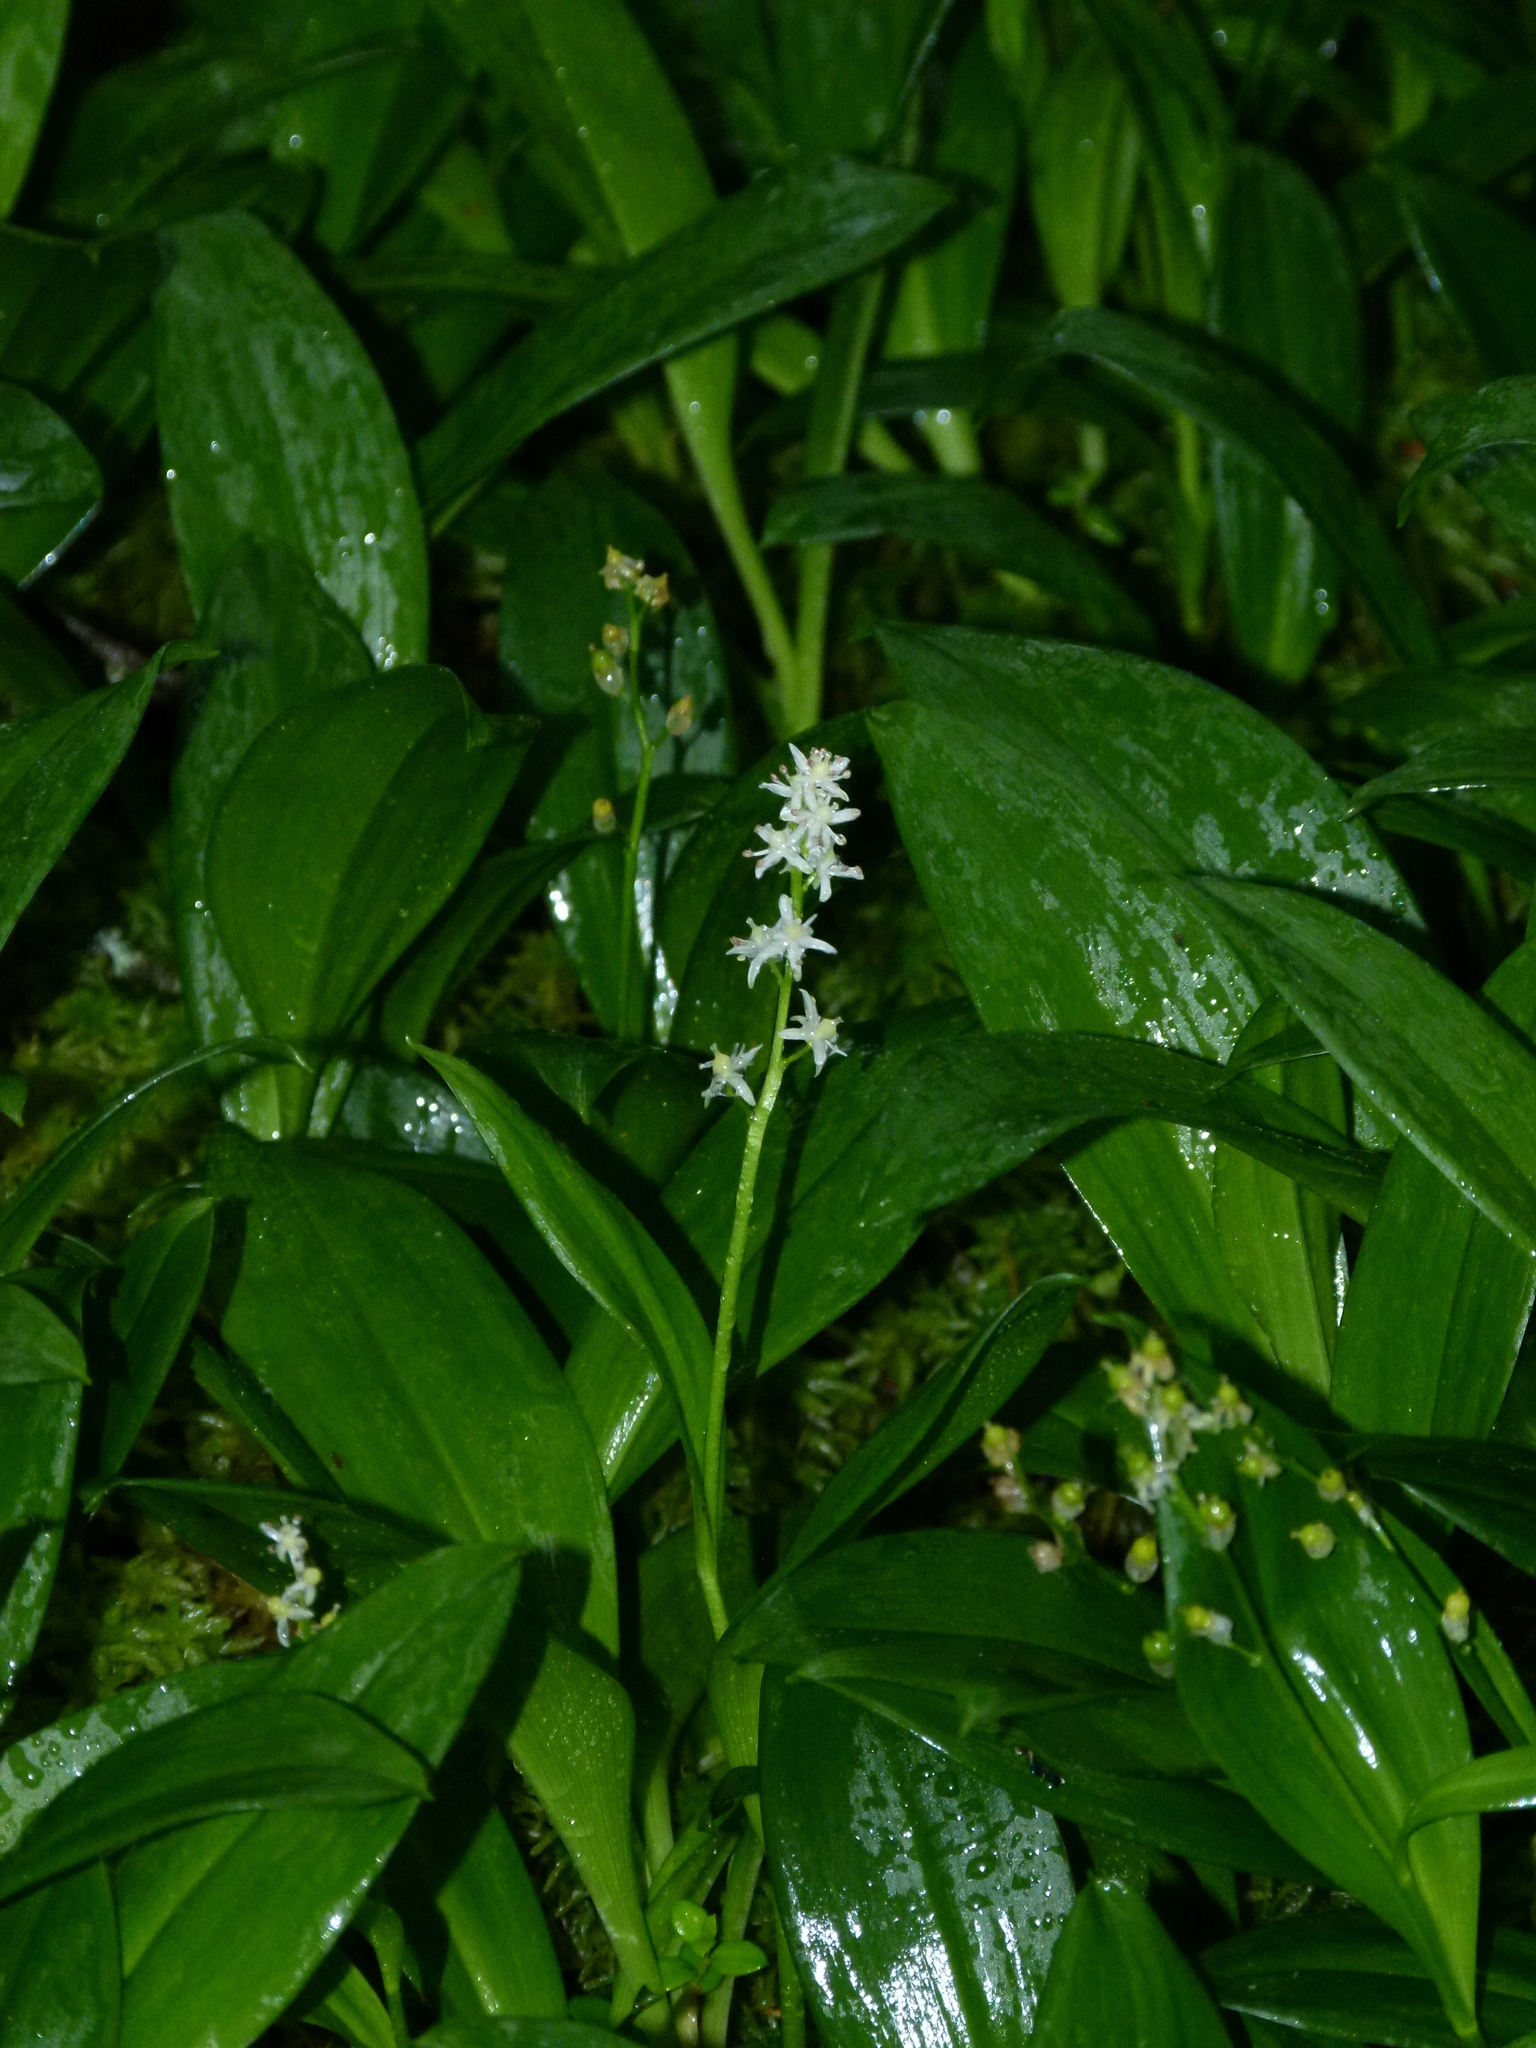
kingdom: Plantae
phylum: Tracheophyta
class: Liliopsida
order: Asparagales
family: Asparagaceae
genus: Maianthemum
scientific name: Maianthemum trifolium
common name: Swamp false solomon's seal
